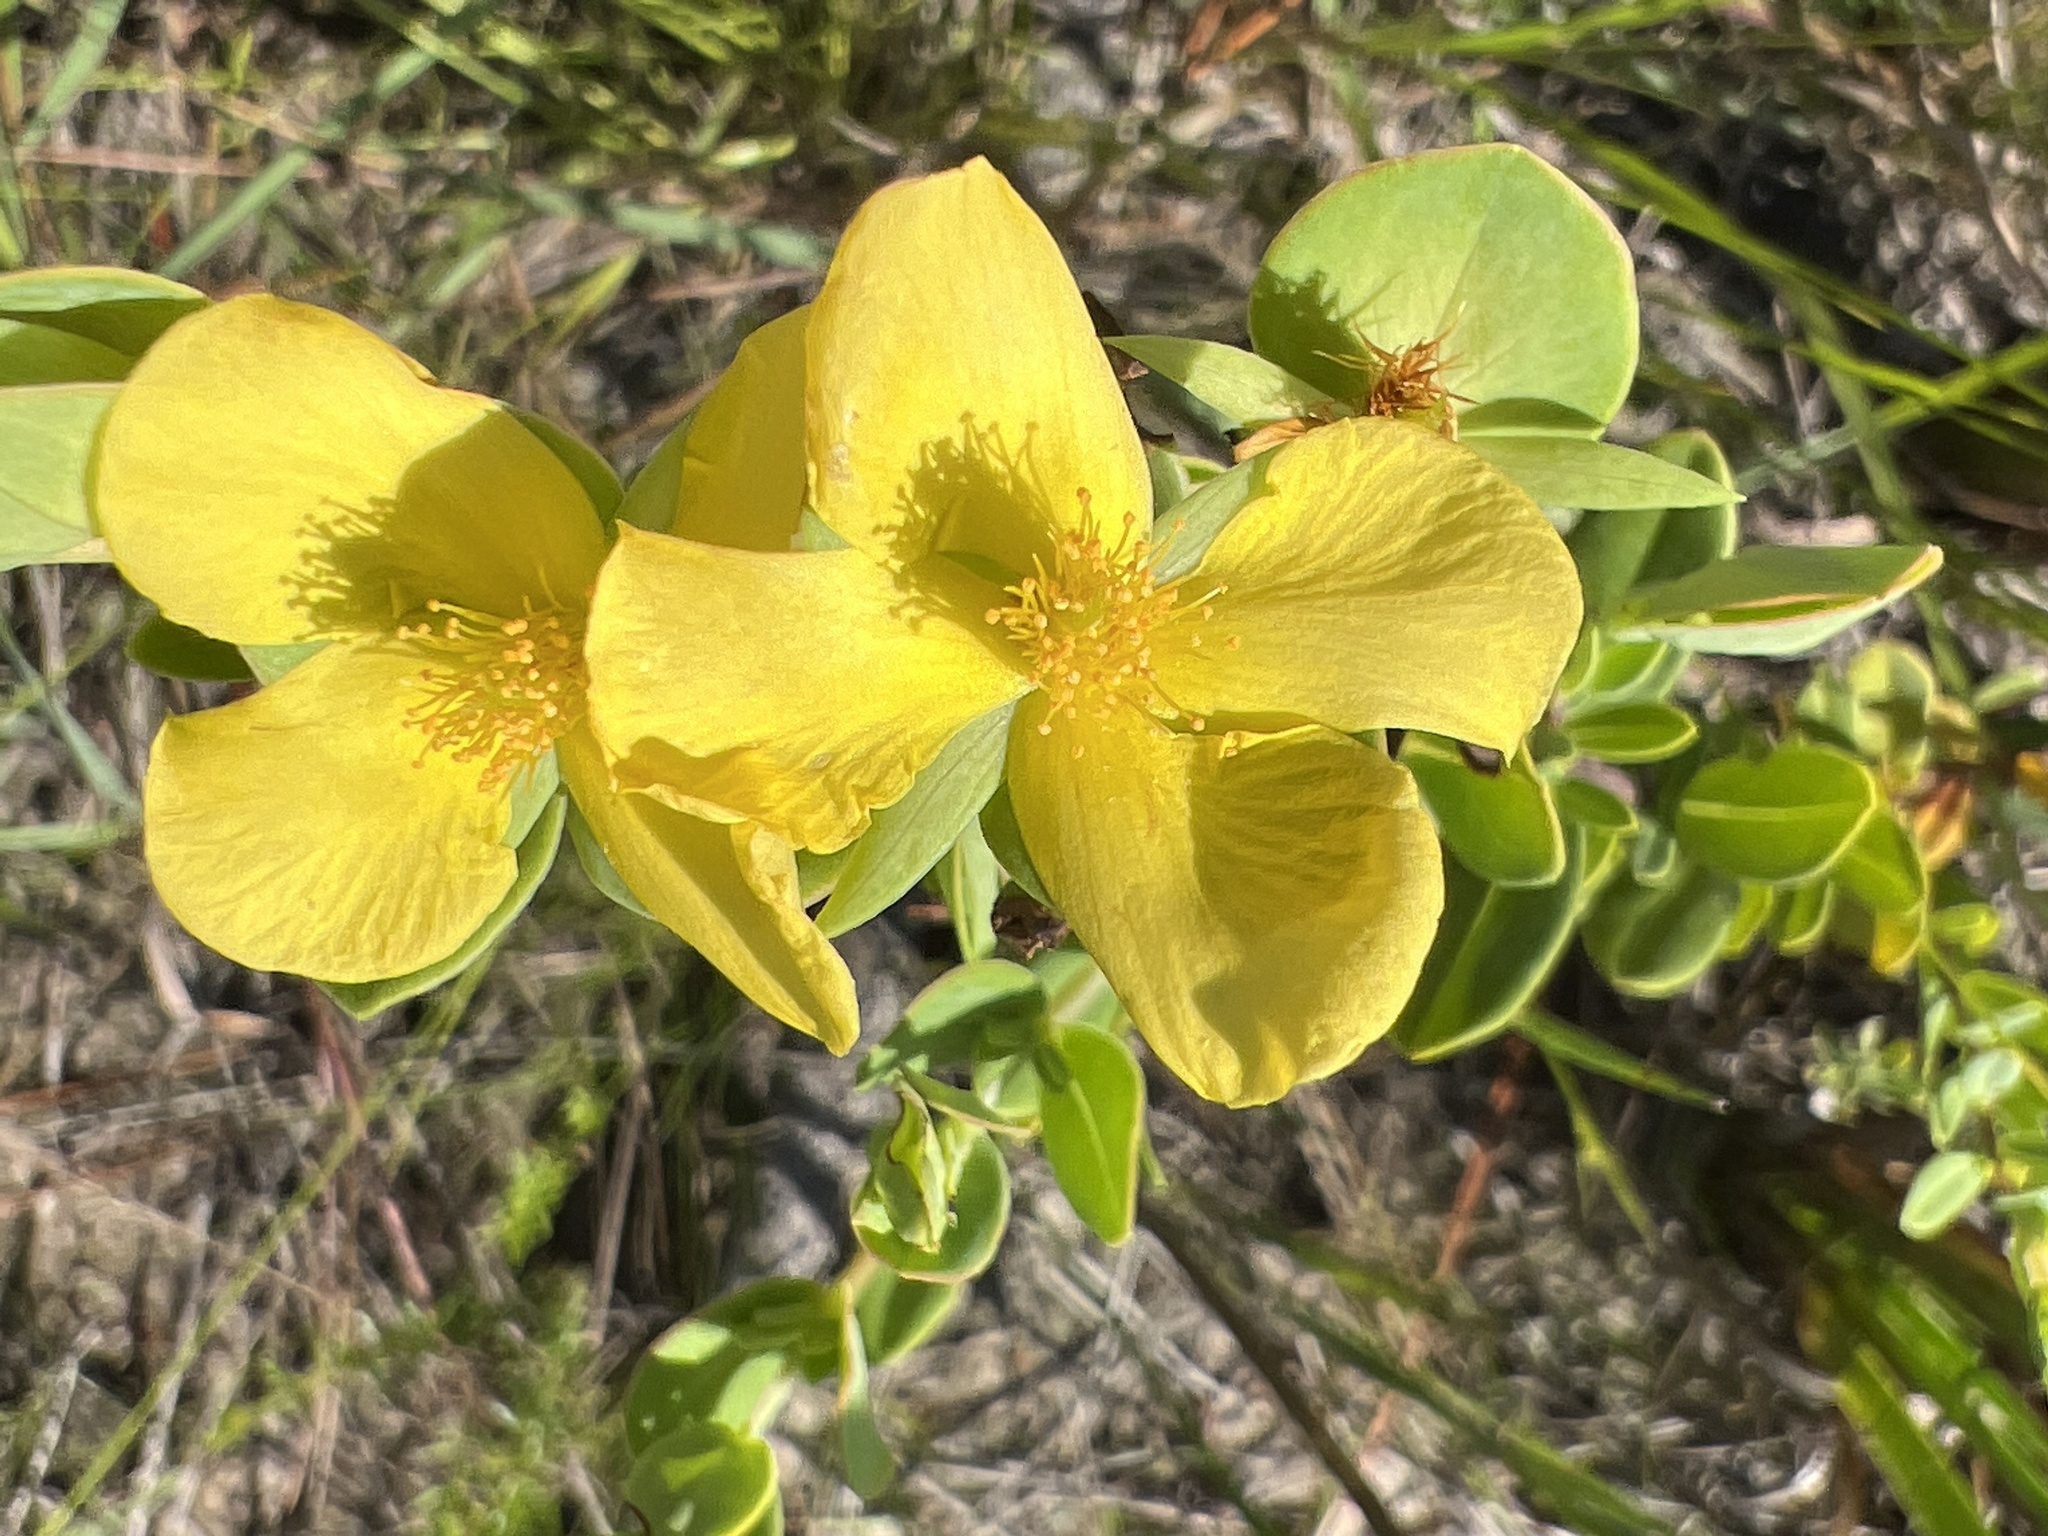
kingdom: Plantae
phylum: Tracheophyta
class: Magnoliopsida
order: Malpighiales
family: Hypericaceae
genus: Hypericum
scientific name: Hypericum crux-andreae
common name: St.-peter's-wort
